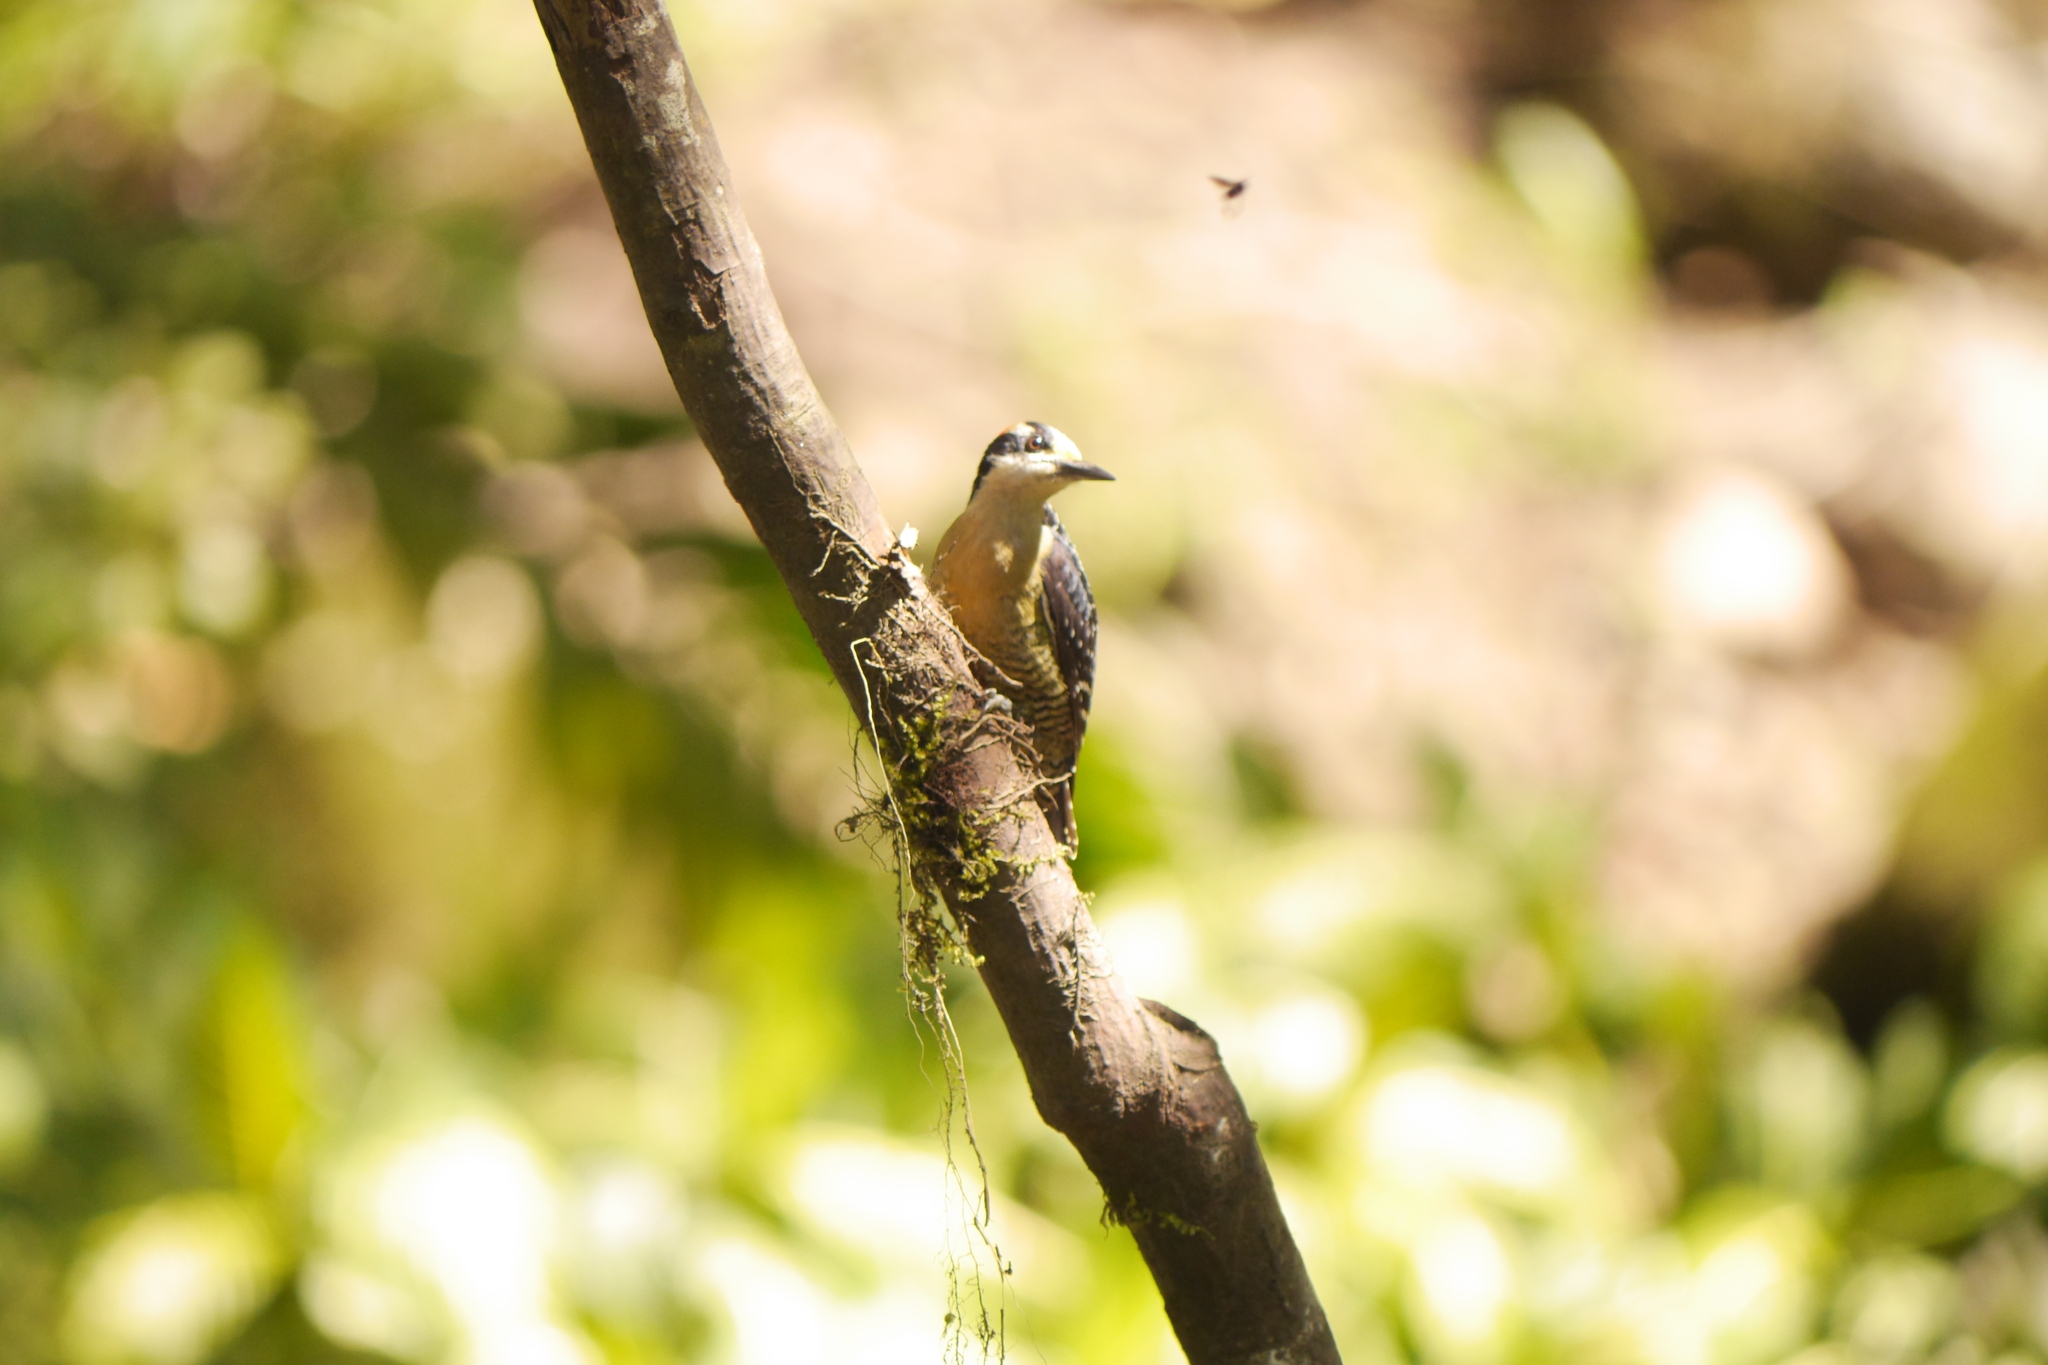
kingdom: Animalia
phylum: Chordata
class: Aves
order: Piciformes
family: Picidae
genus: Melanerpes
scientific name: Melanerpes pucherani
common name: Black-cheeked woodpecker
